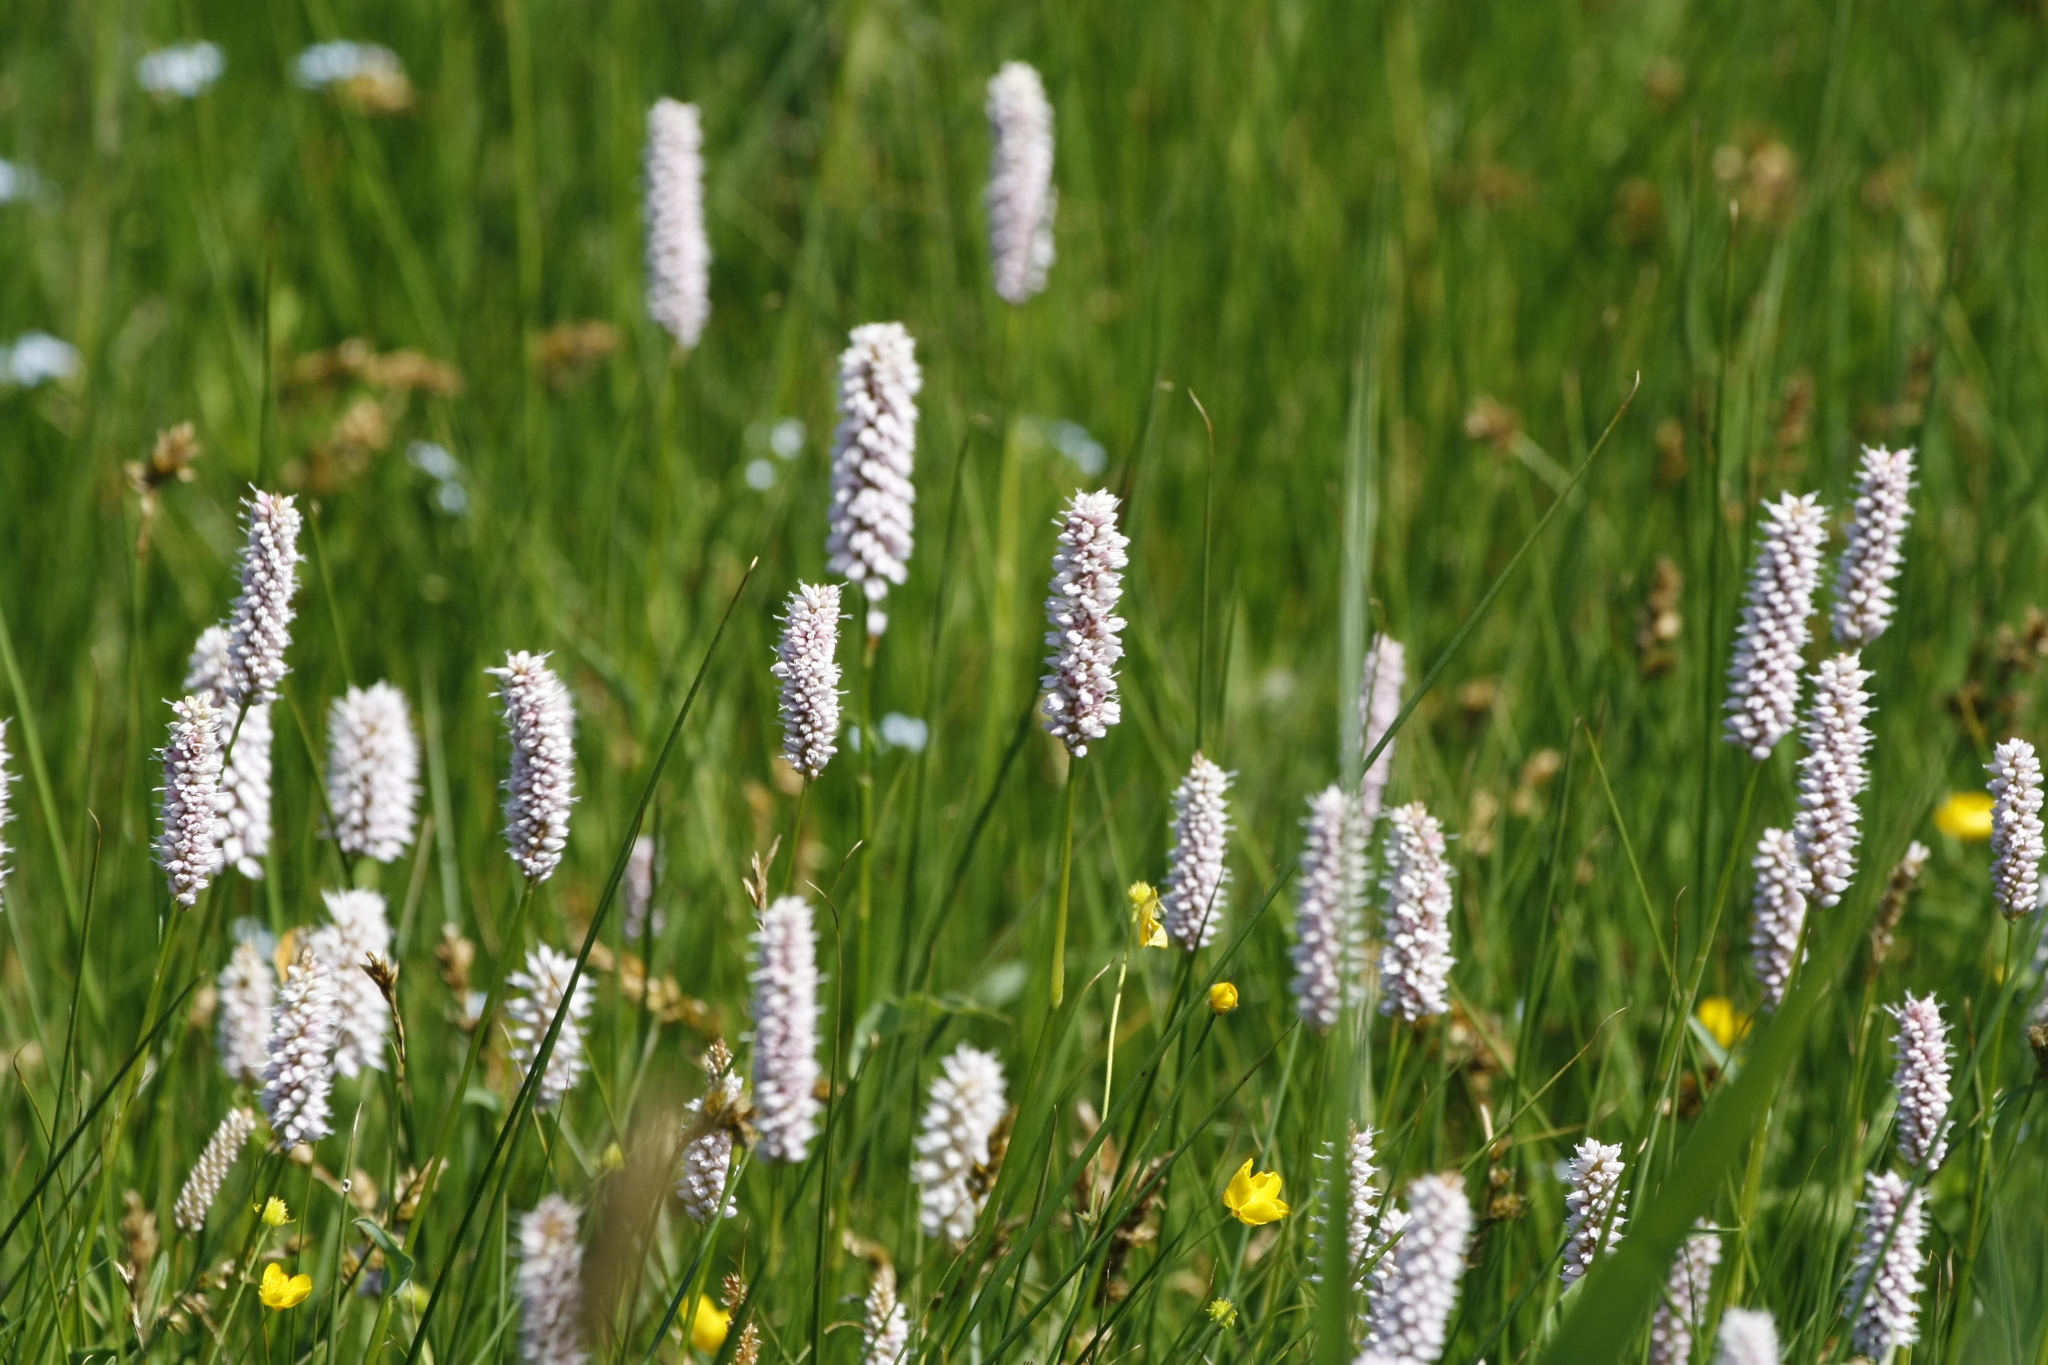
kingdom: Plantae
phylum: Tracheophyta
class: Magnoliopsida
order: Caryophyllales
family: Polygonaceae
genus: Bistorta
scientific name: Bistorta officinalis
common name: Common bistort
